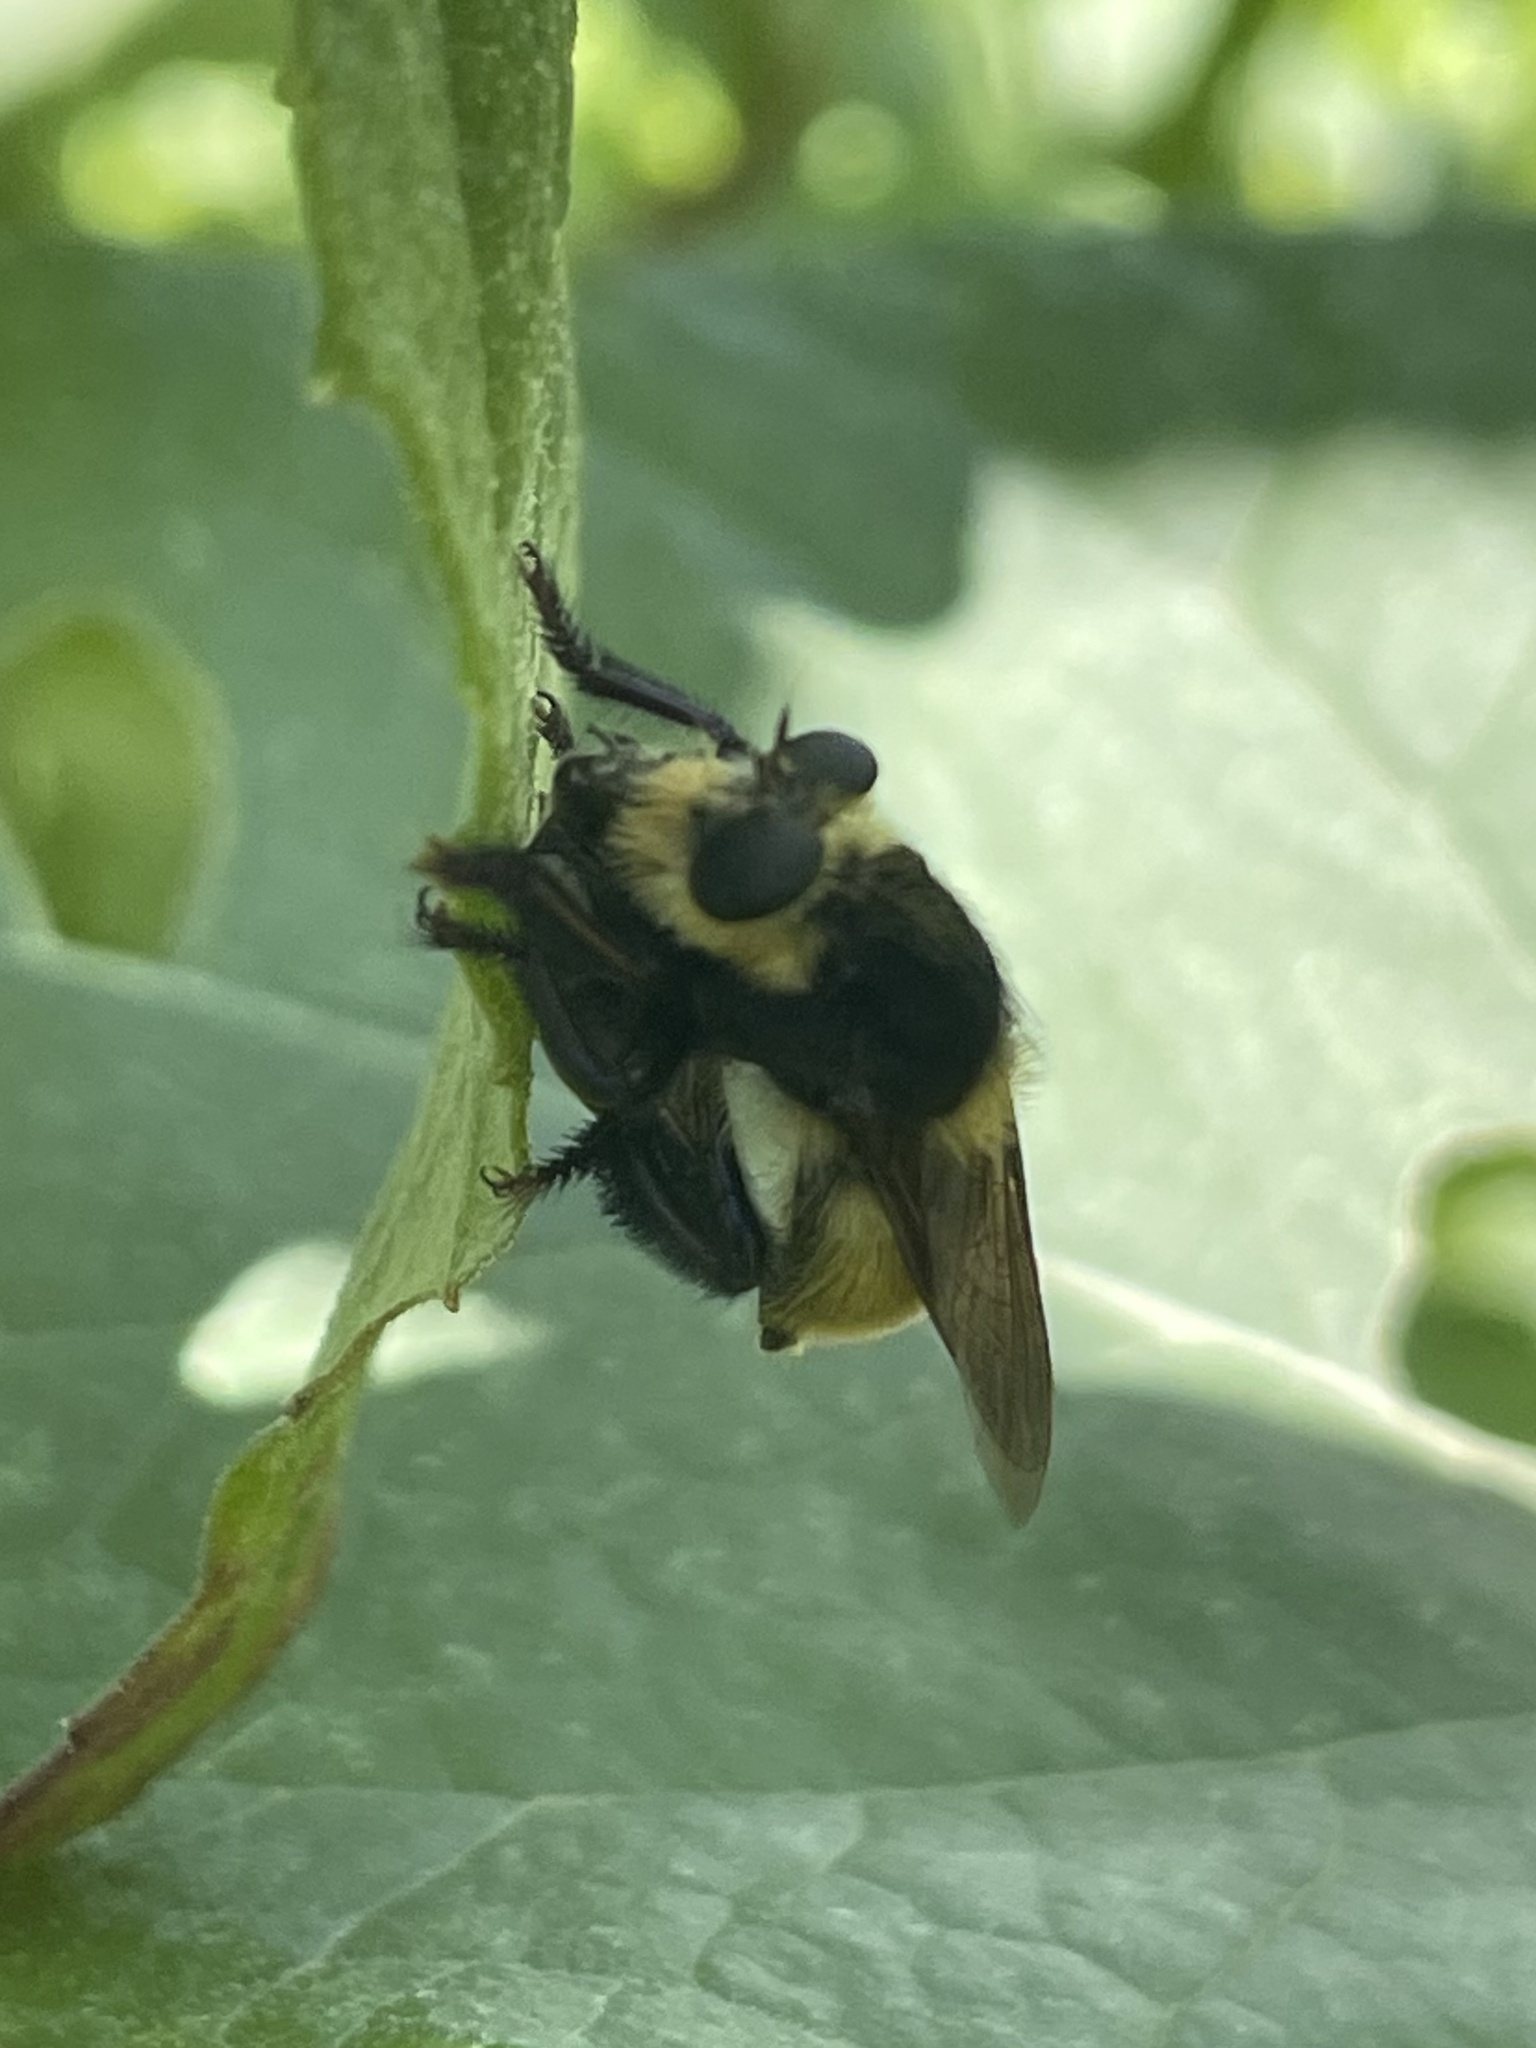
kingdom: Animalia
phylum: Arthropoda
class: Insecta
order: Diptera
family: Asilidae
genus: Mallophora
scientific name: Mallophora fautrix
